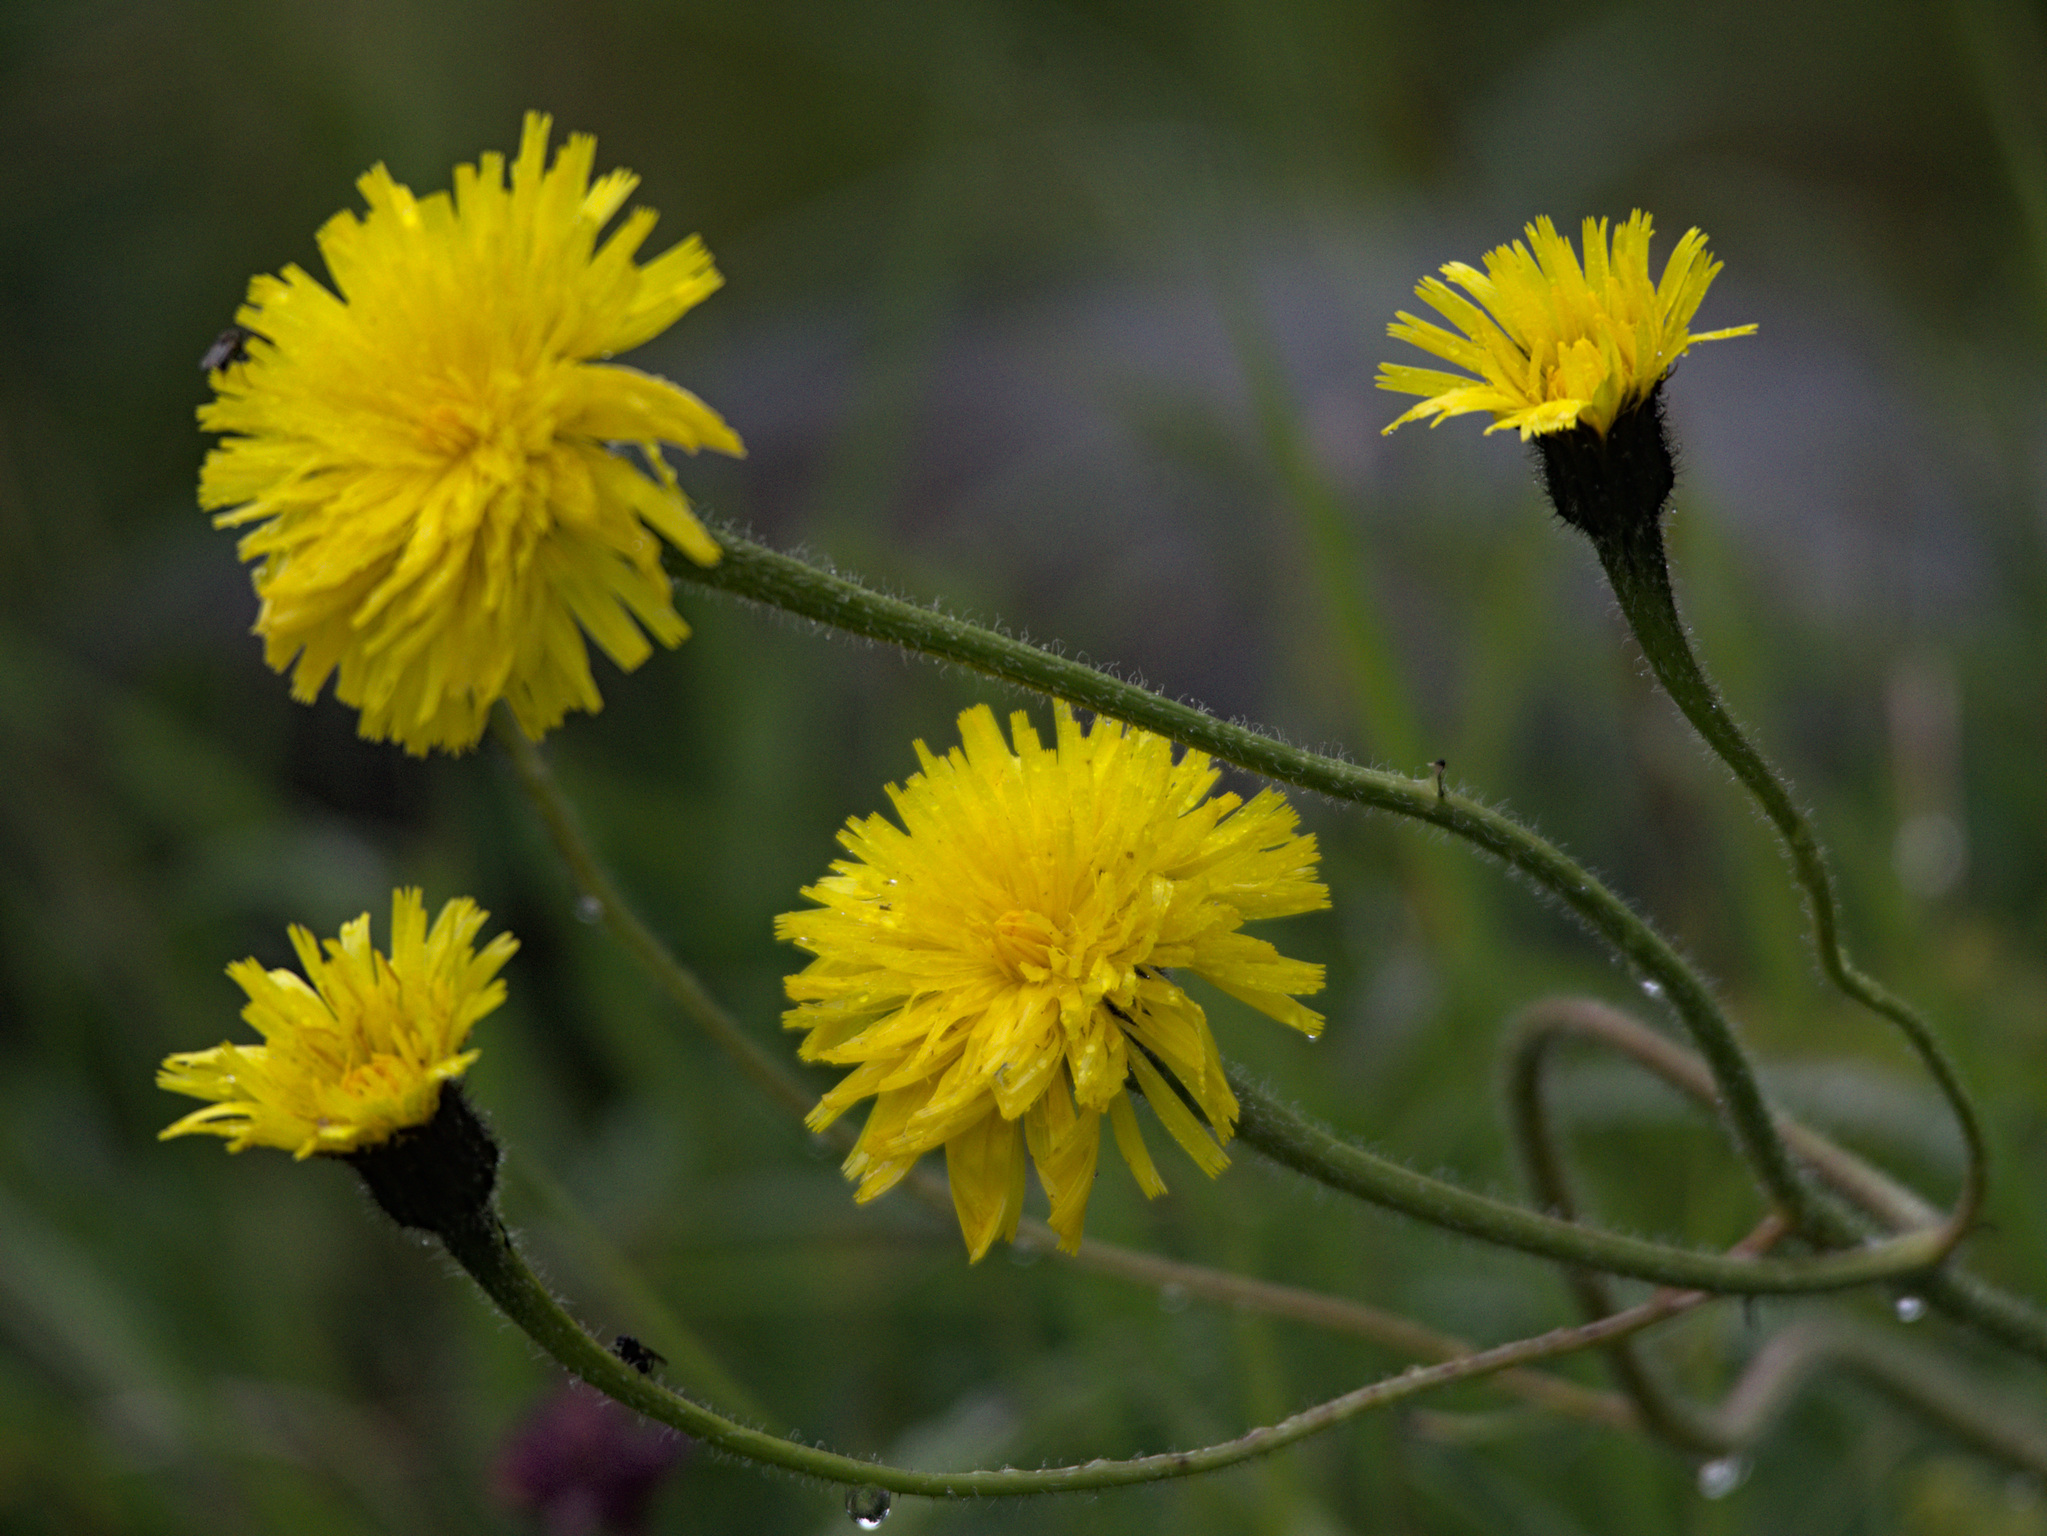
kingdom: Plantae
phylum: Tracheophyta
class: Magnoliopsida
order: Asterales
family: Asteraceae
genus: Trommsdorffia
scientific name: Trommsdorffia maculata
